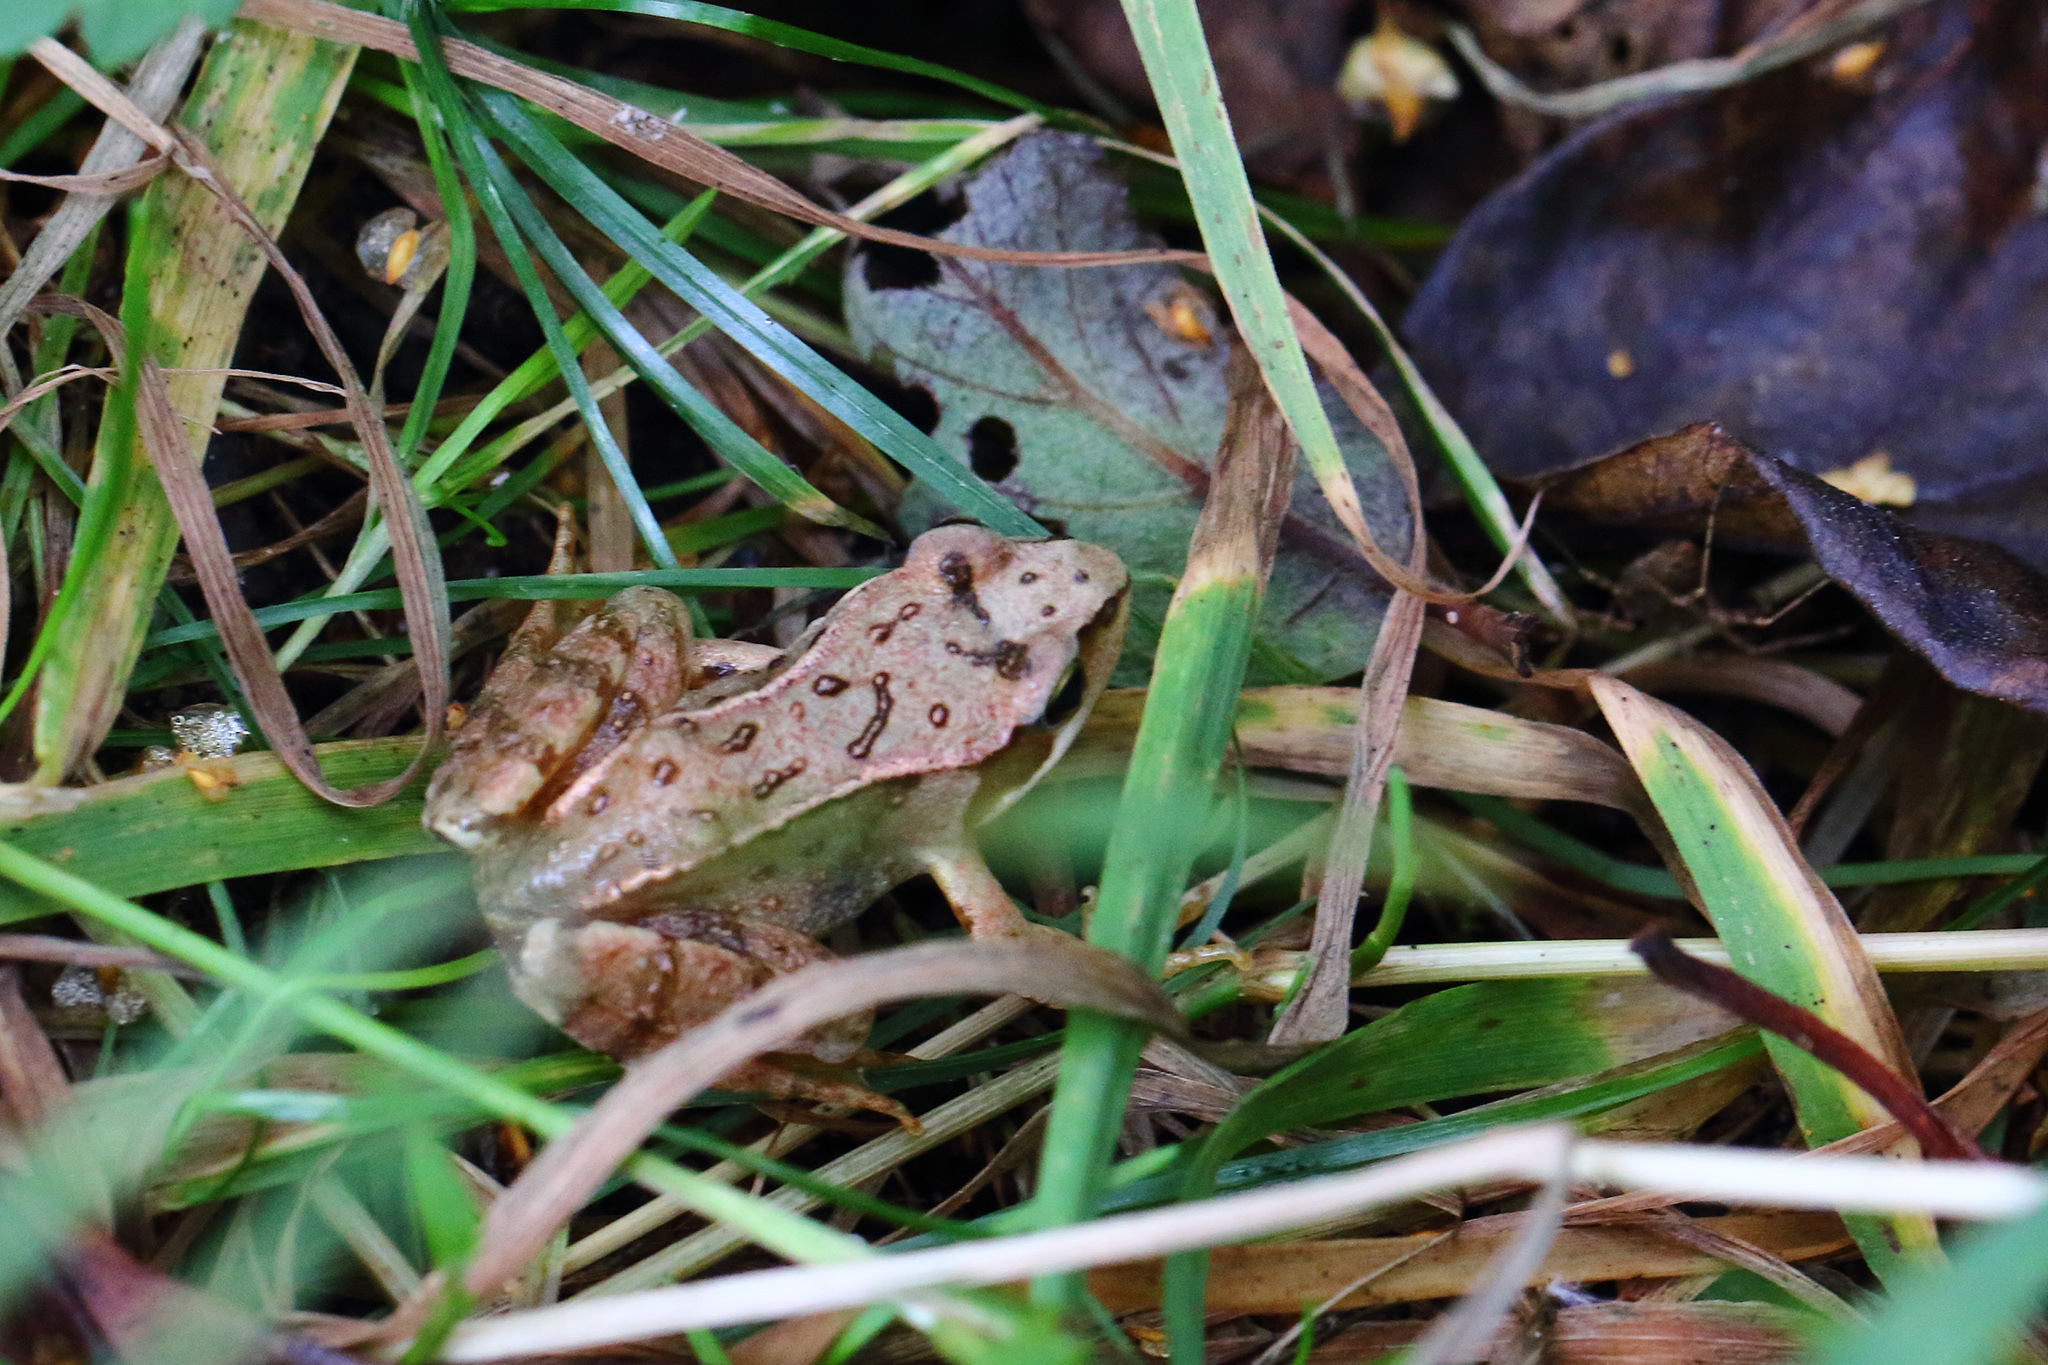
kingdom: Animalia
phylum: Chordata
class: Amphibia
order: Anura
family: Ranidae
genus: Rana
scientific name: Rana temporaria
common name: Common frog
